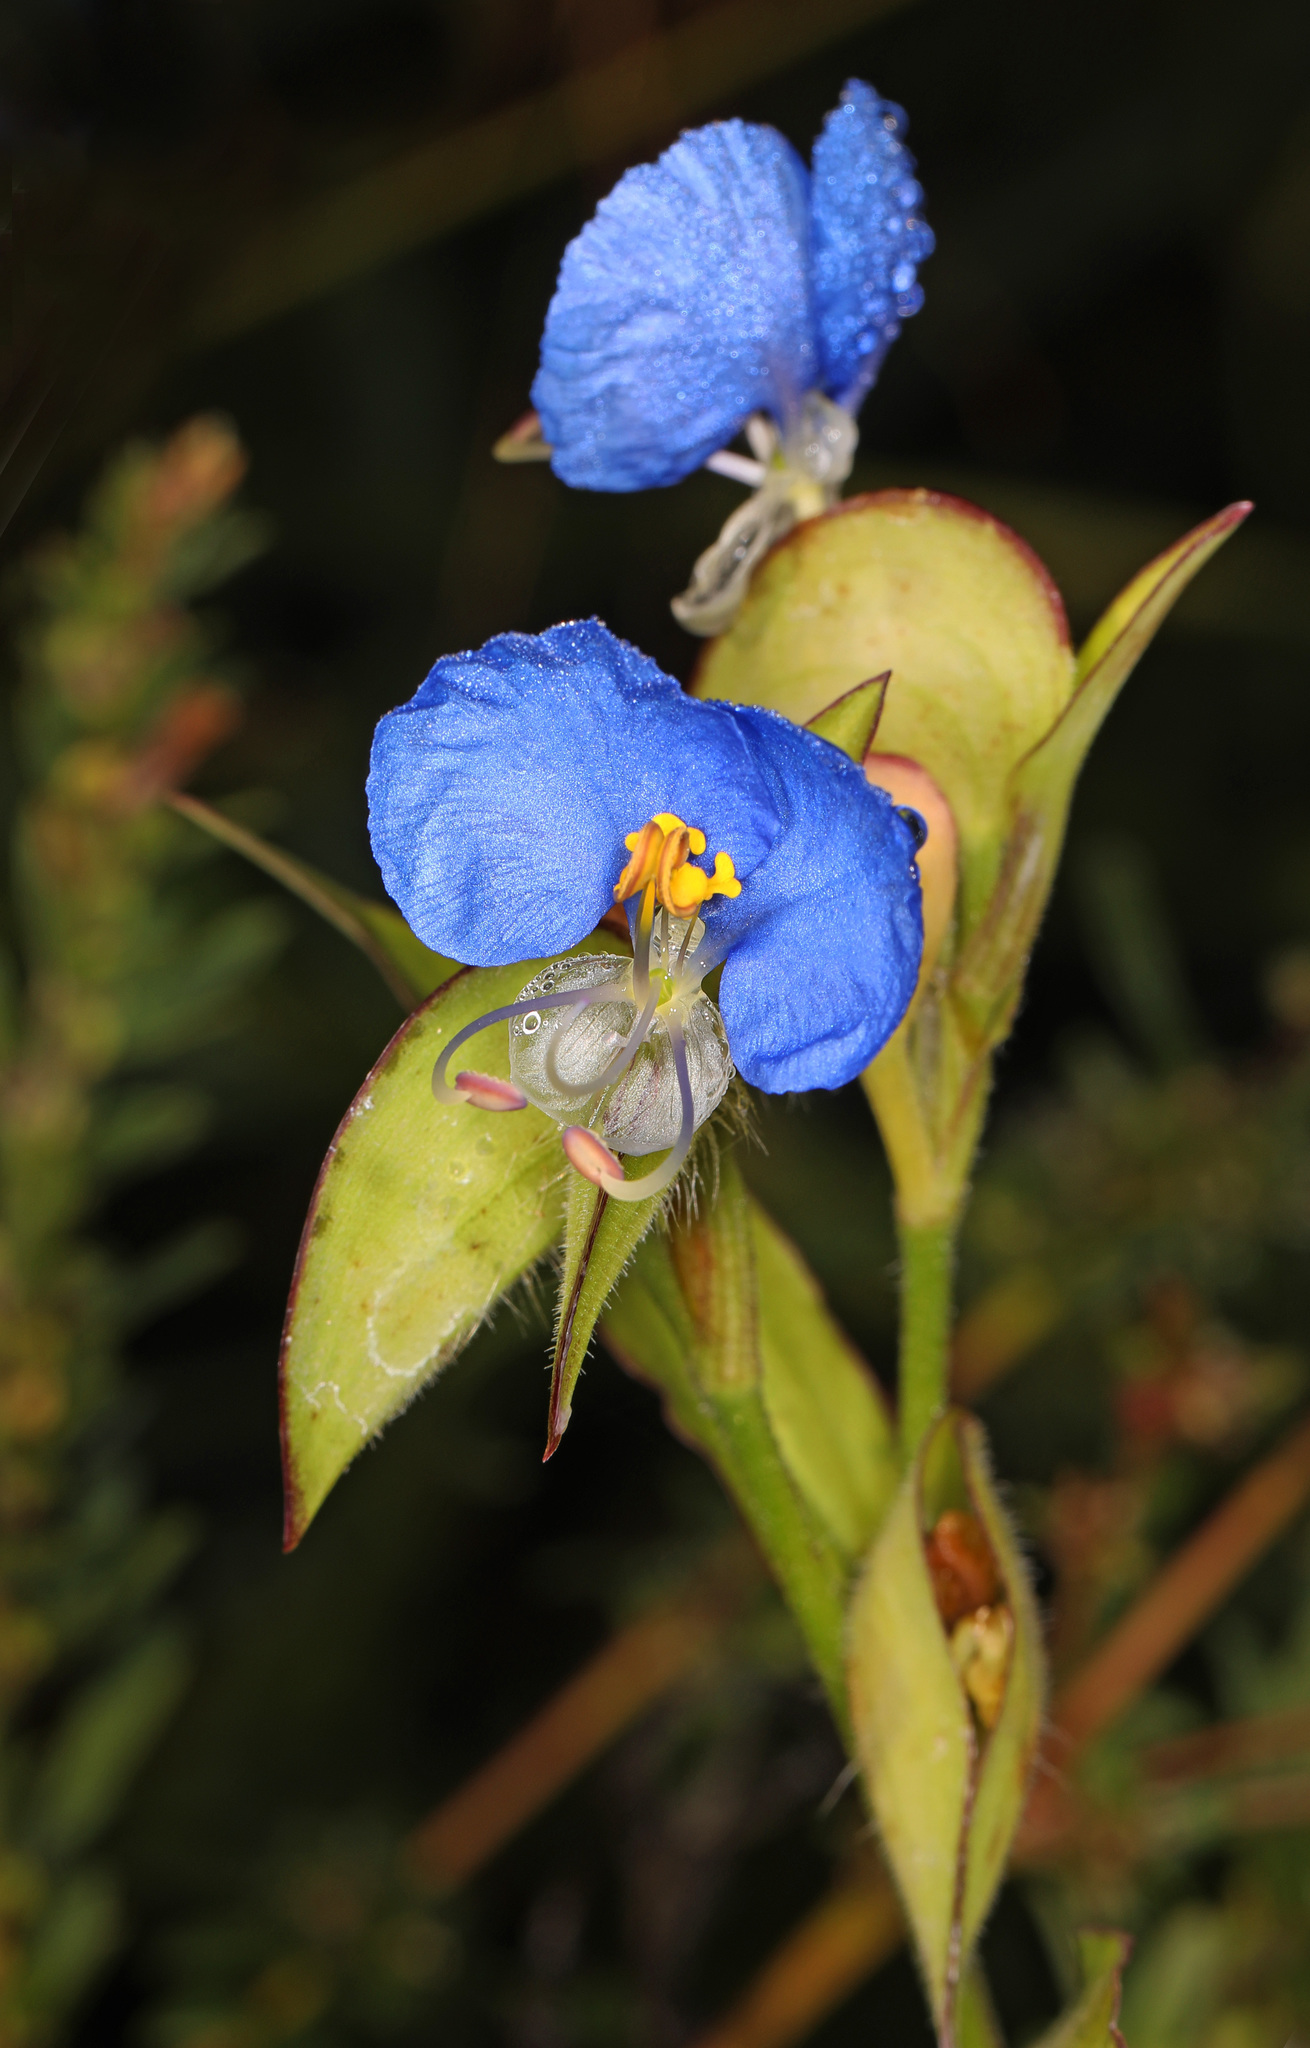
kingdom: Plantae
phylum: Tracheophyta
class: Liliopsida
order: Commelinales
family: Commelinaceae
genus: Commelina
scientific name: Commelina erecta
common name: Blousel blommetjie
